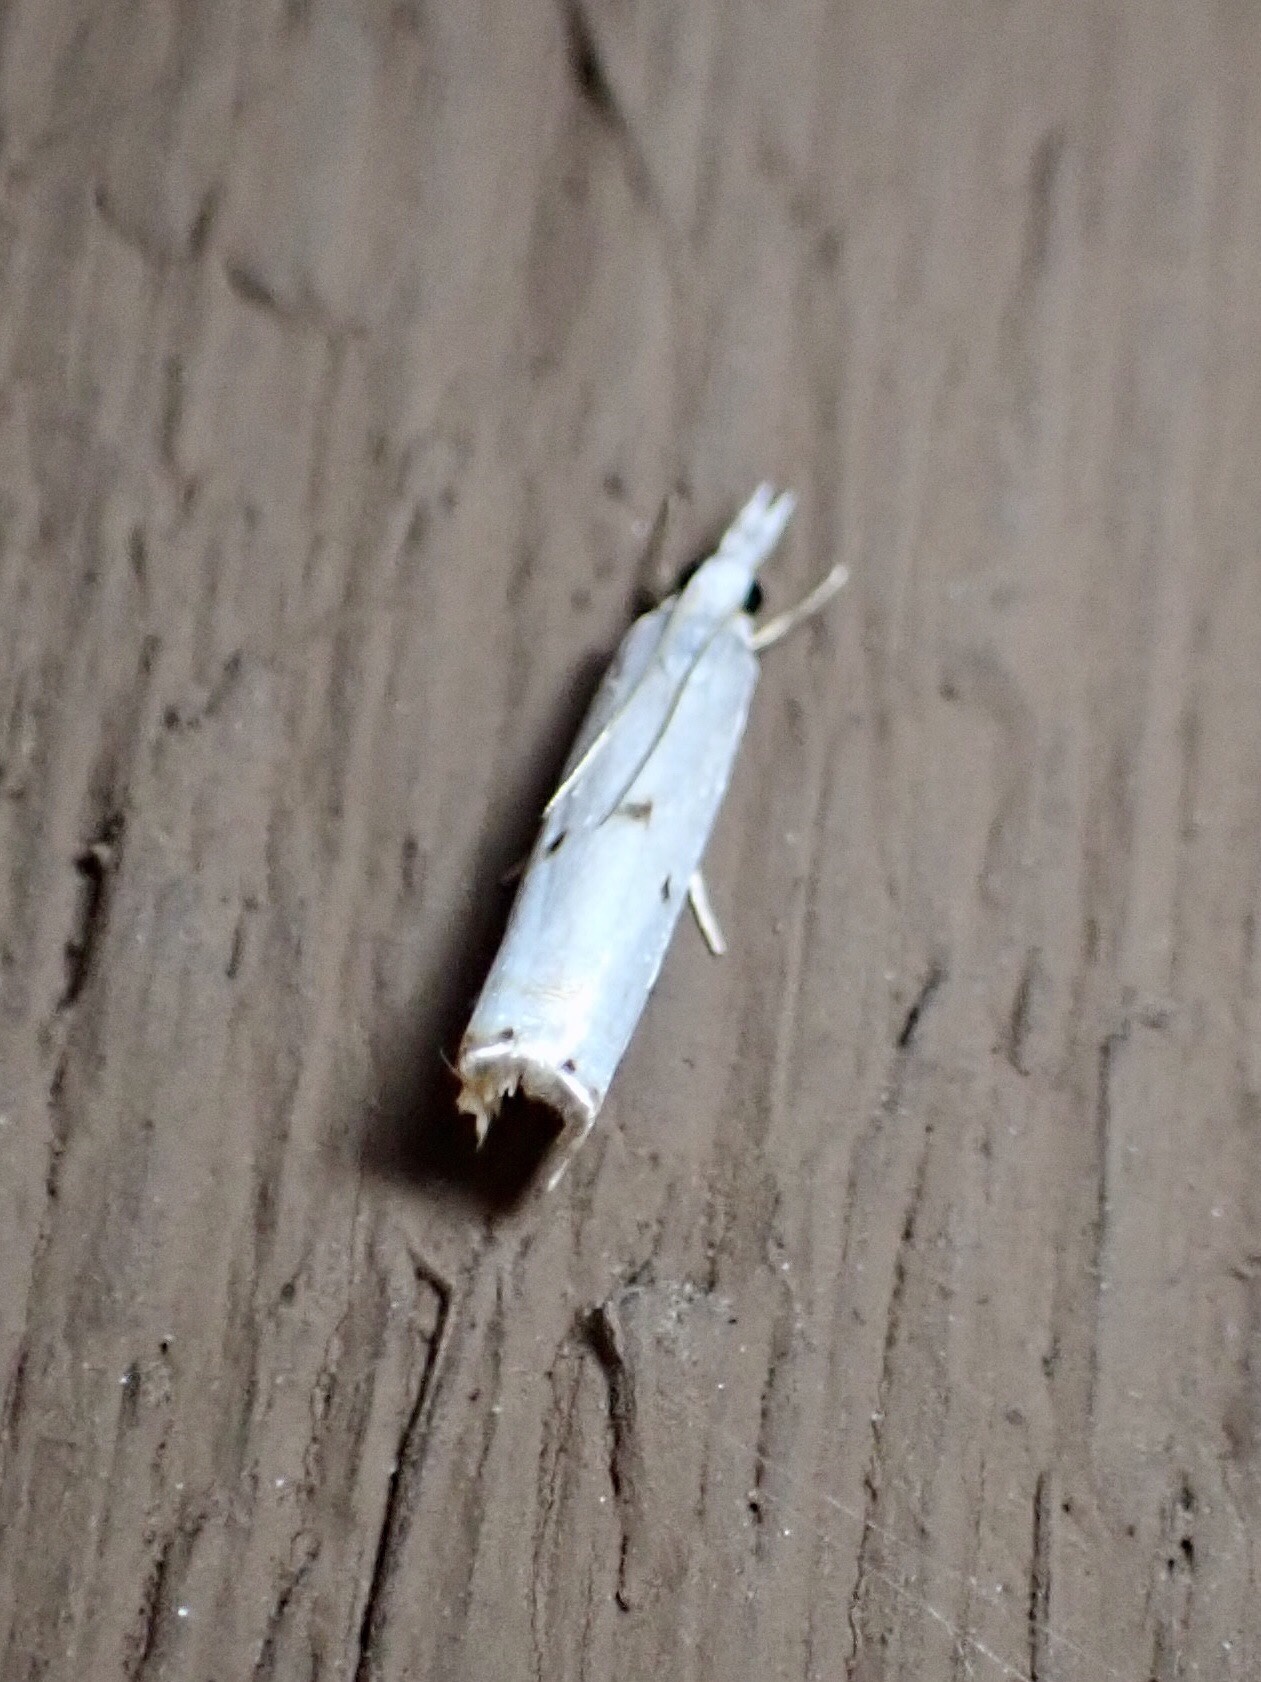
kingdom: Animalia
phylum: Arthropoda
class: Insecta
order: Lepidoptera
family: Crambidae
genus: Microcrambus
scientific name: Microcrambus biguttellus
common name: Gold-stripe grass-veneer moth
